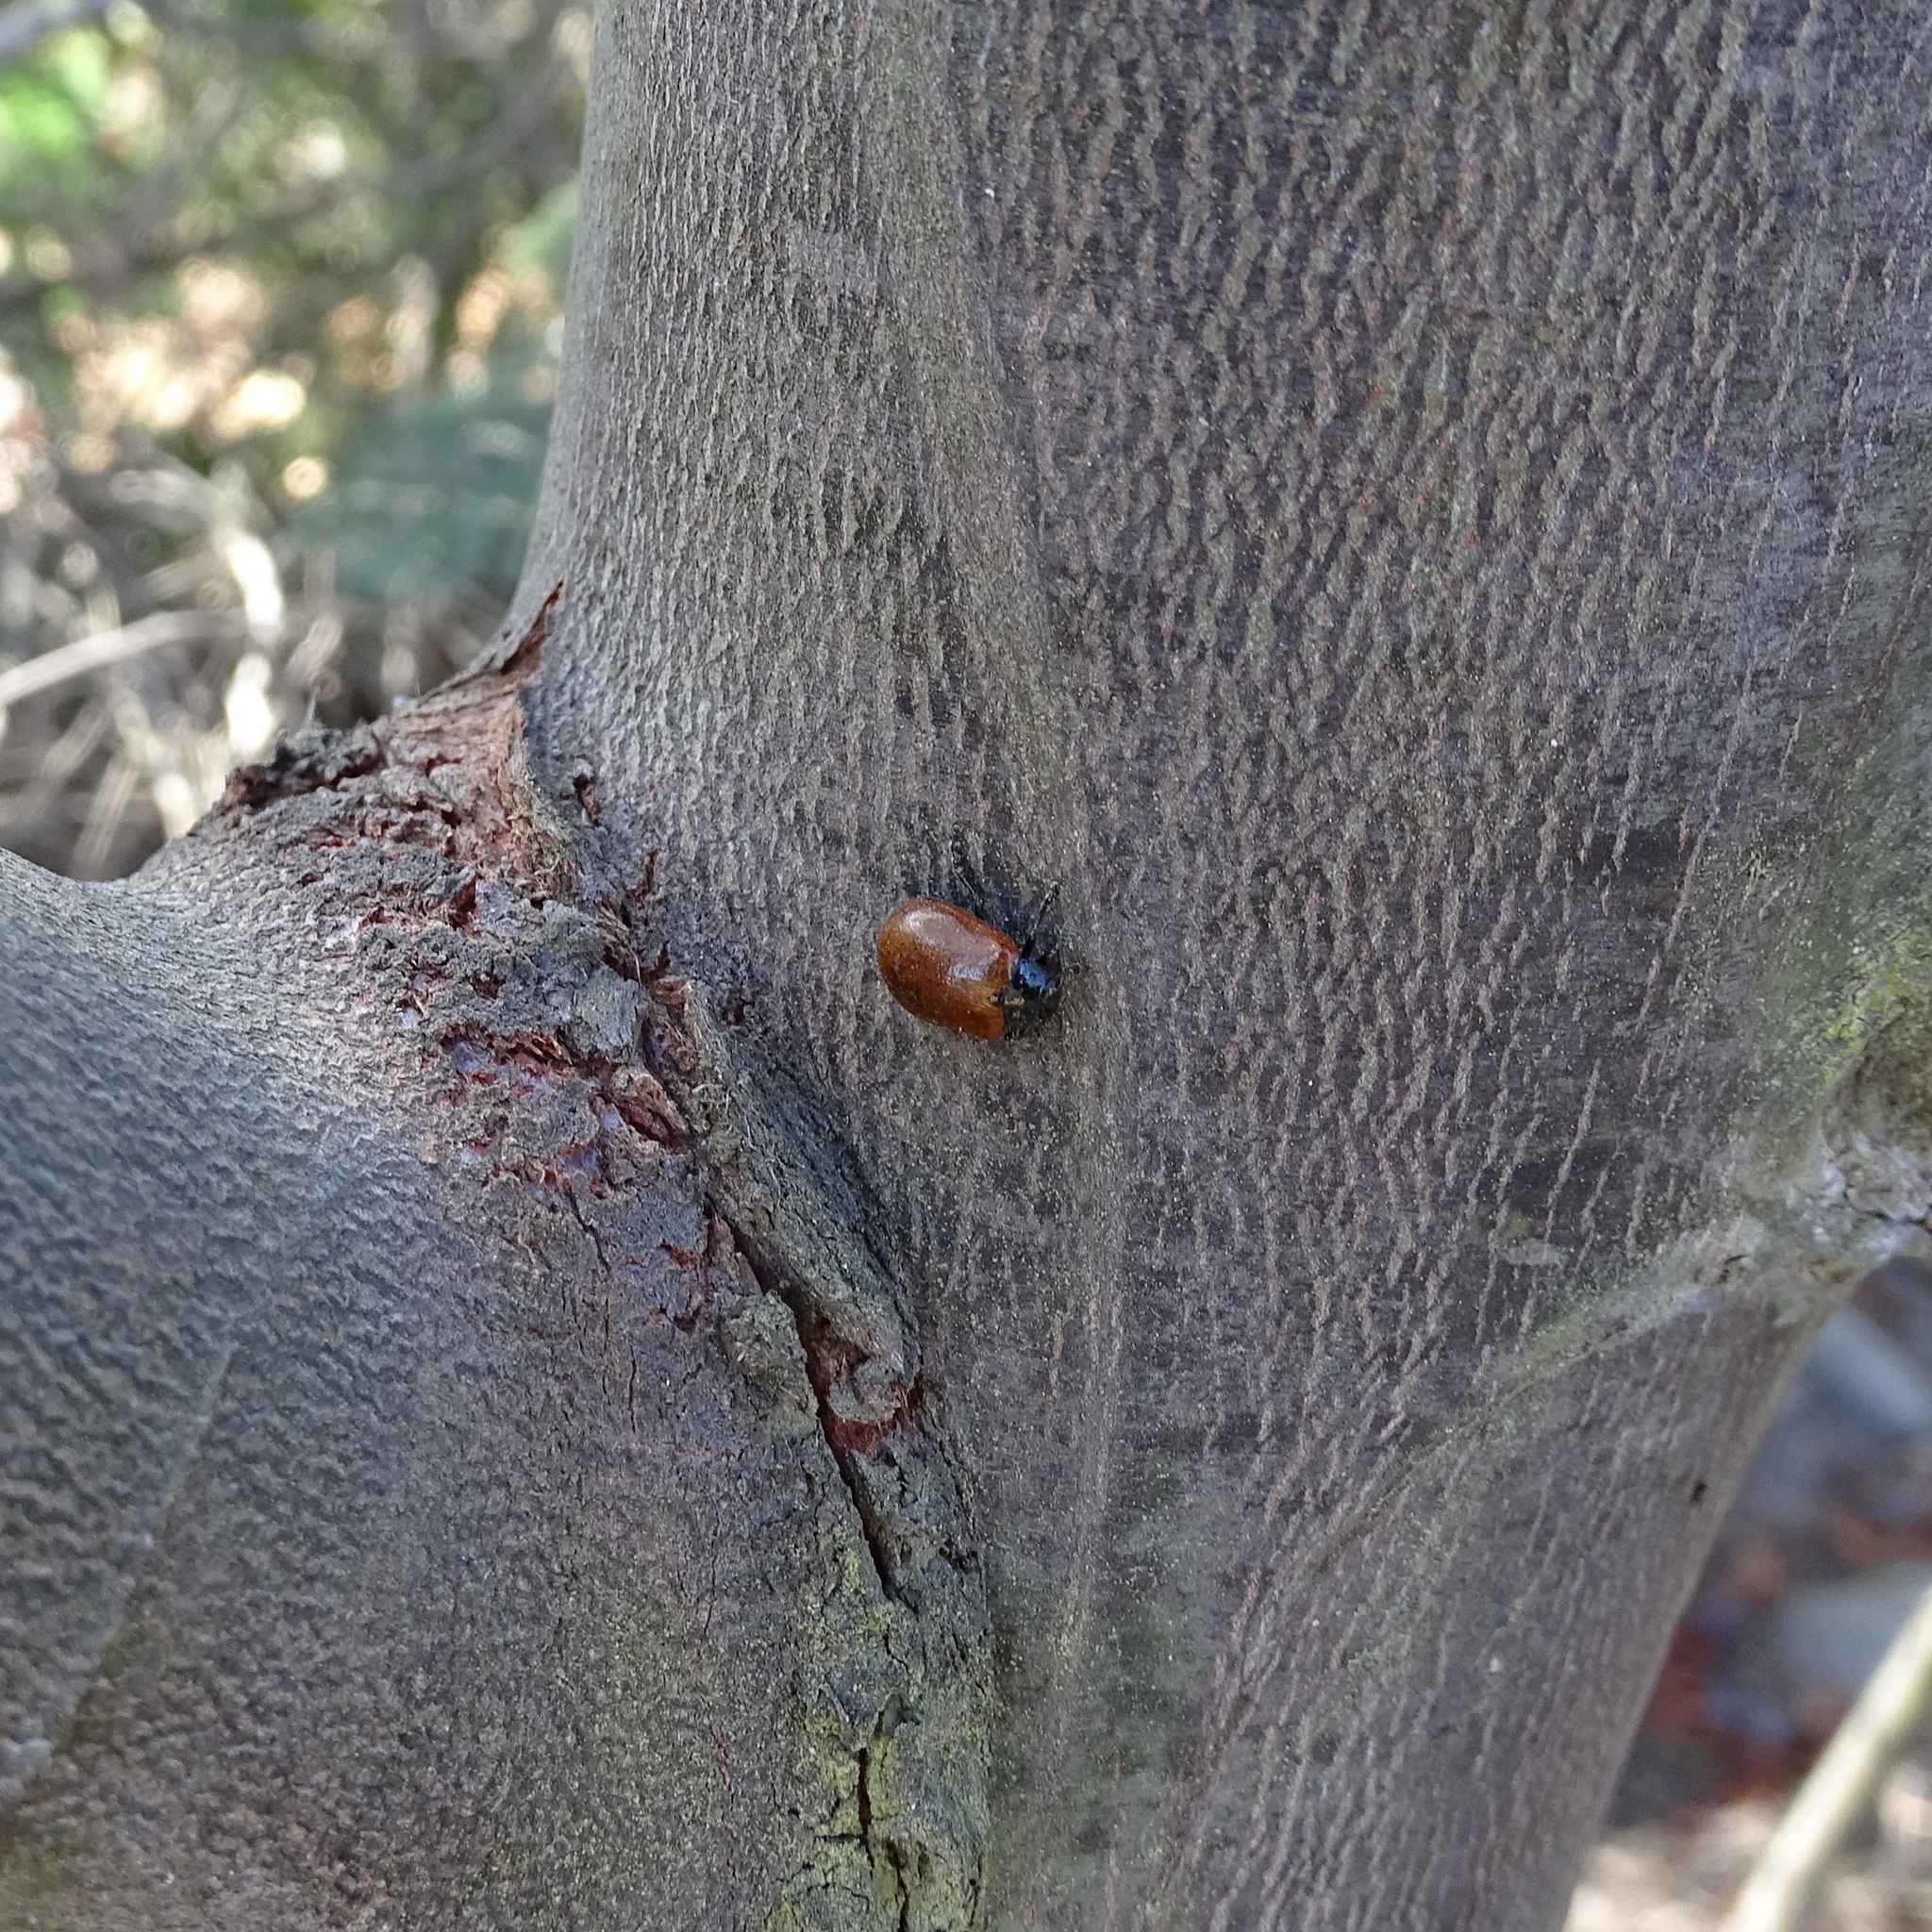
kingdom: Animalia
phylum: Arthropoda
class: Insecta
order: Coleoptera
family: Chrysomelidae
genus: Plagiodera
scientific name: Plagiodera
